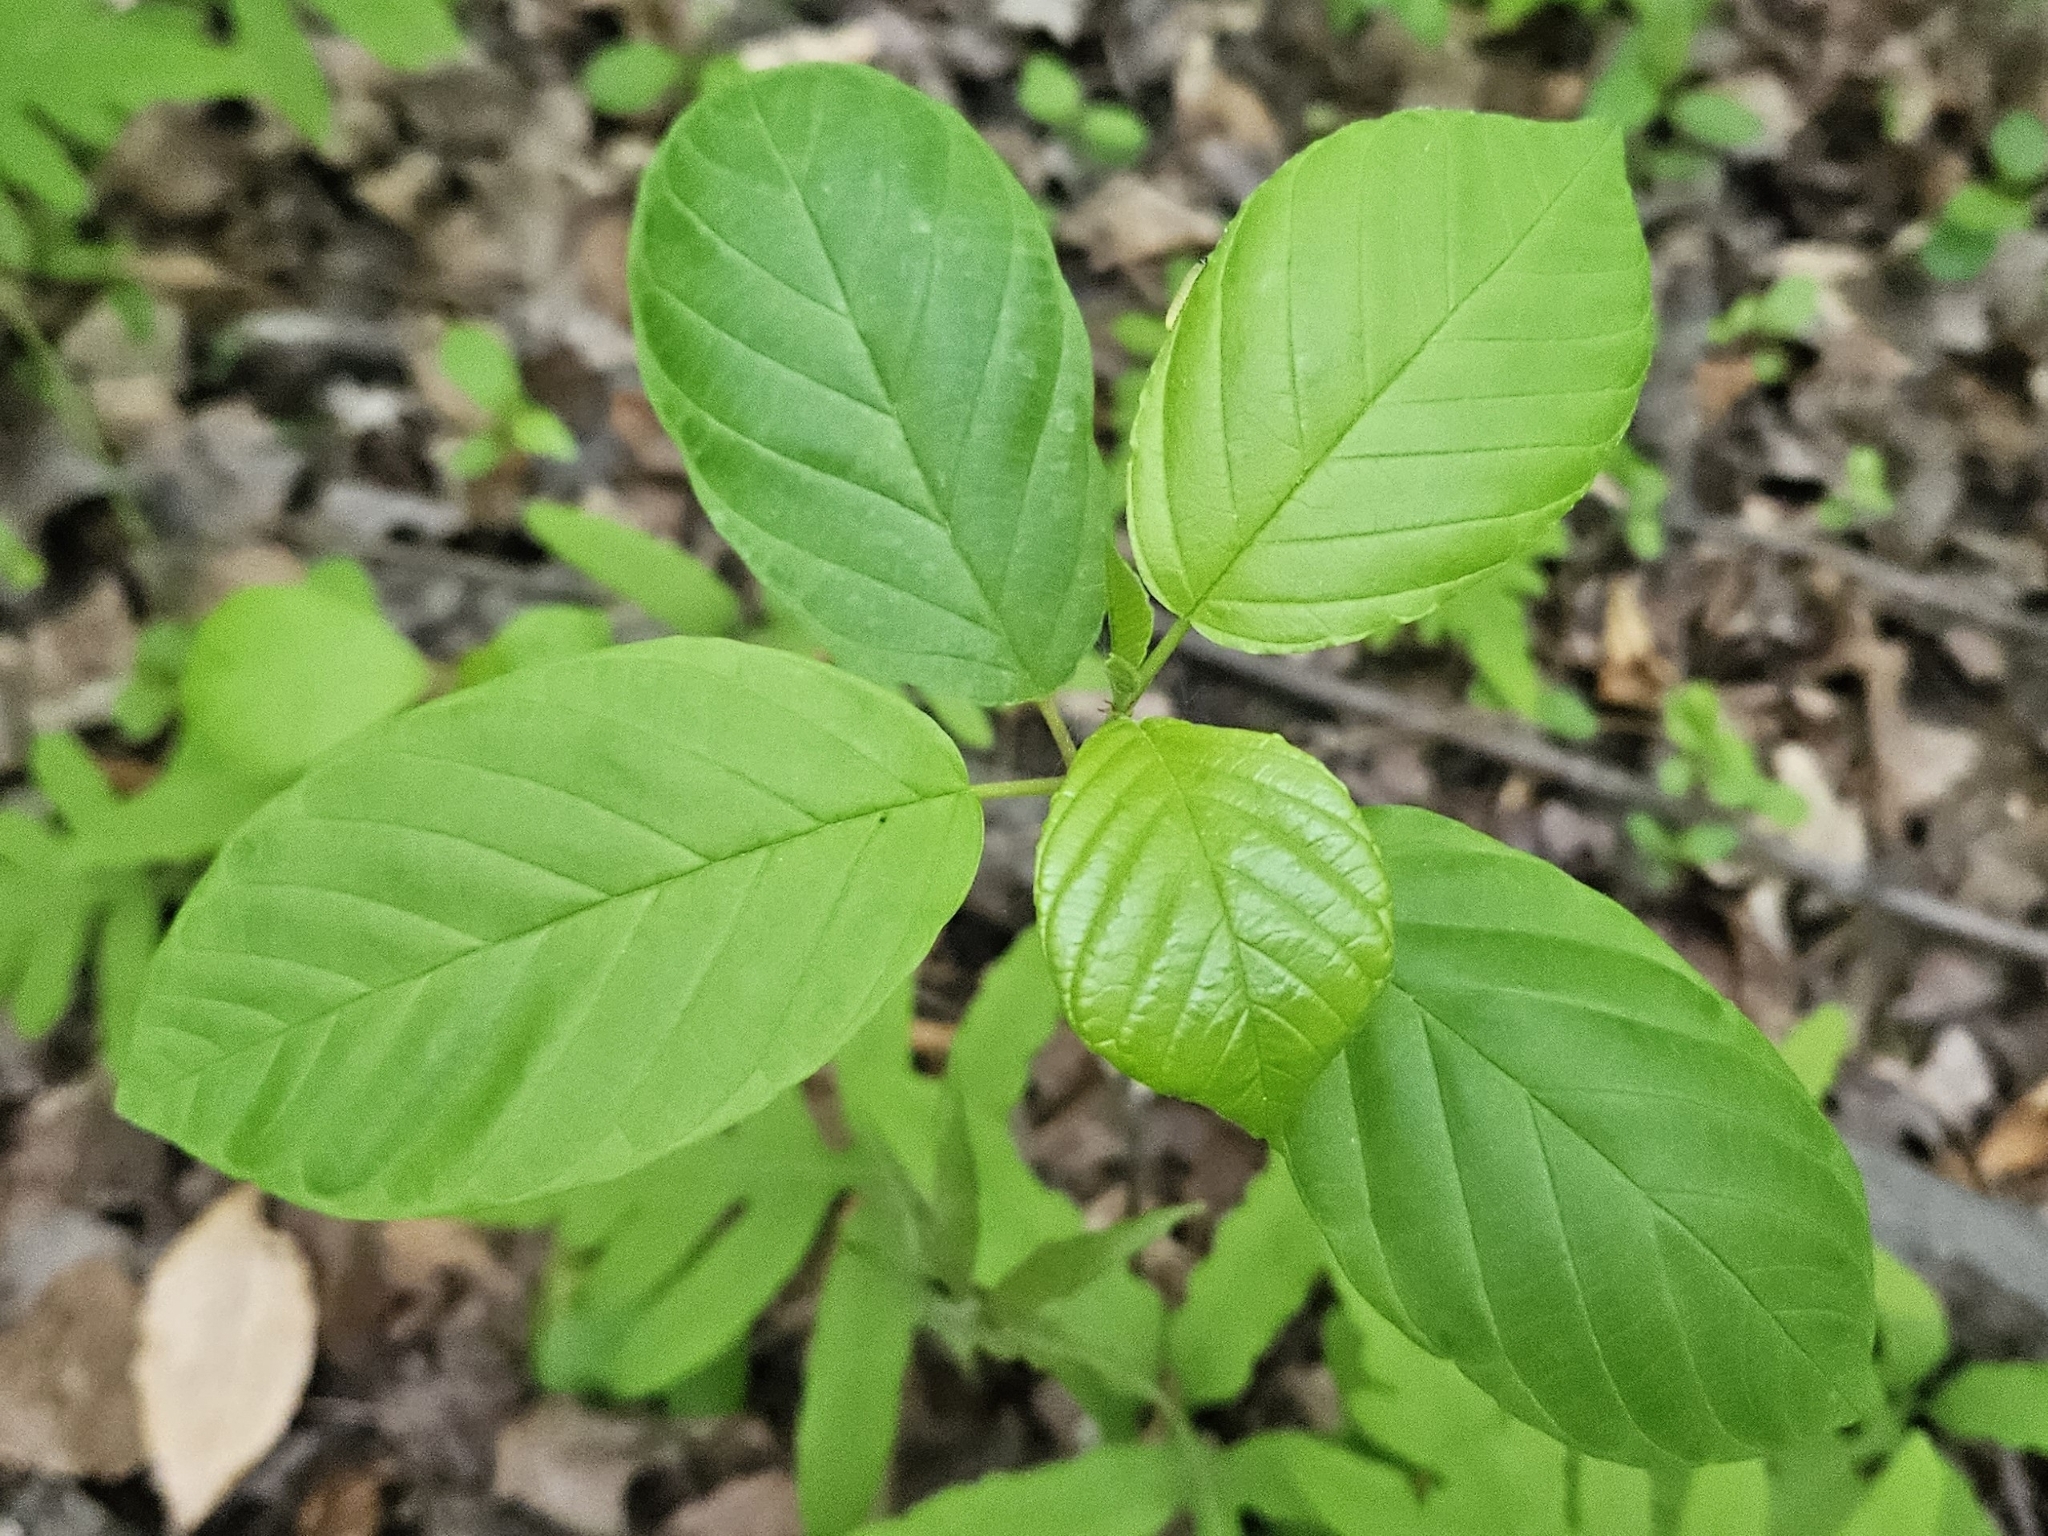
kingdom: Plantae
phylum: Tracheophyta
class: Magnoliopsida
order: Rosales
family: Rhamnaceae
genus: Frangula
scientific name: Frangula alnus
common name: Alder buckthorn
